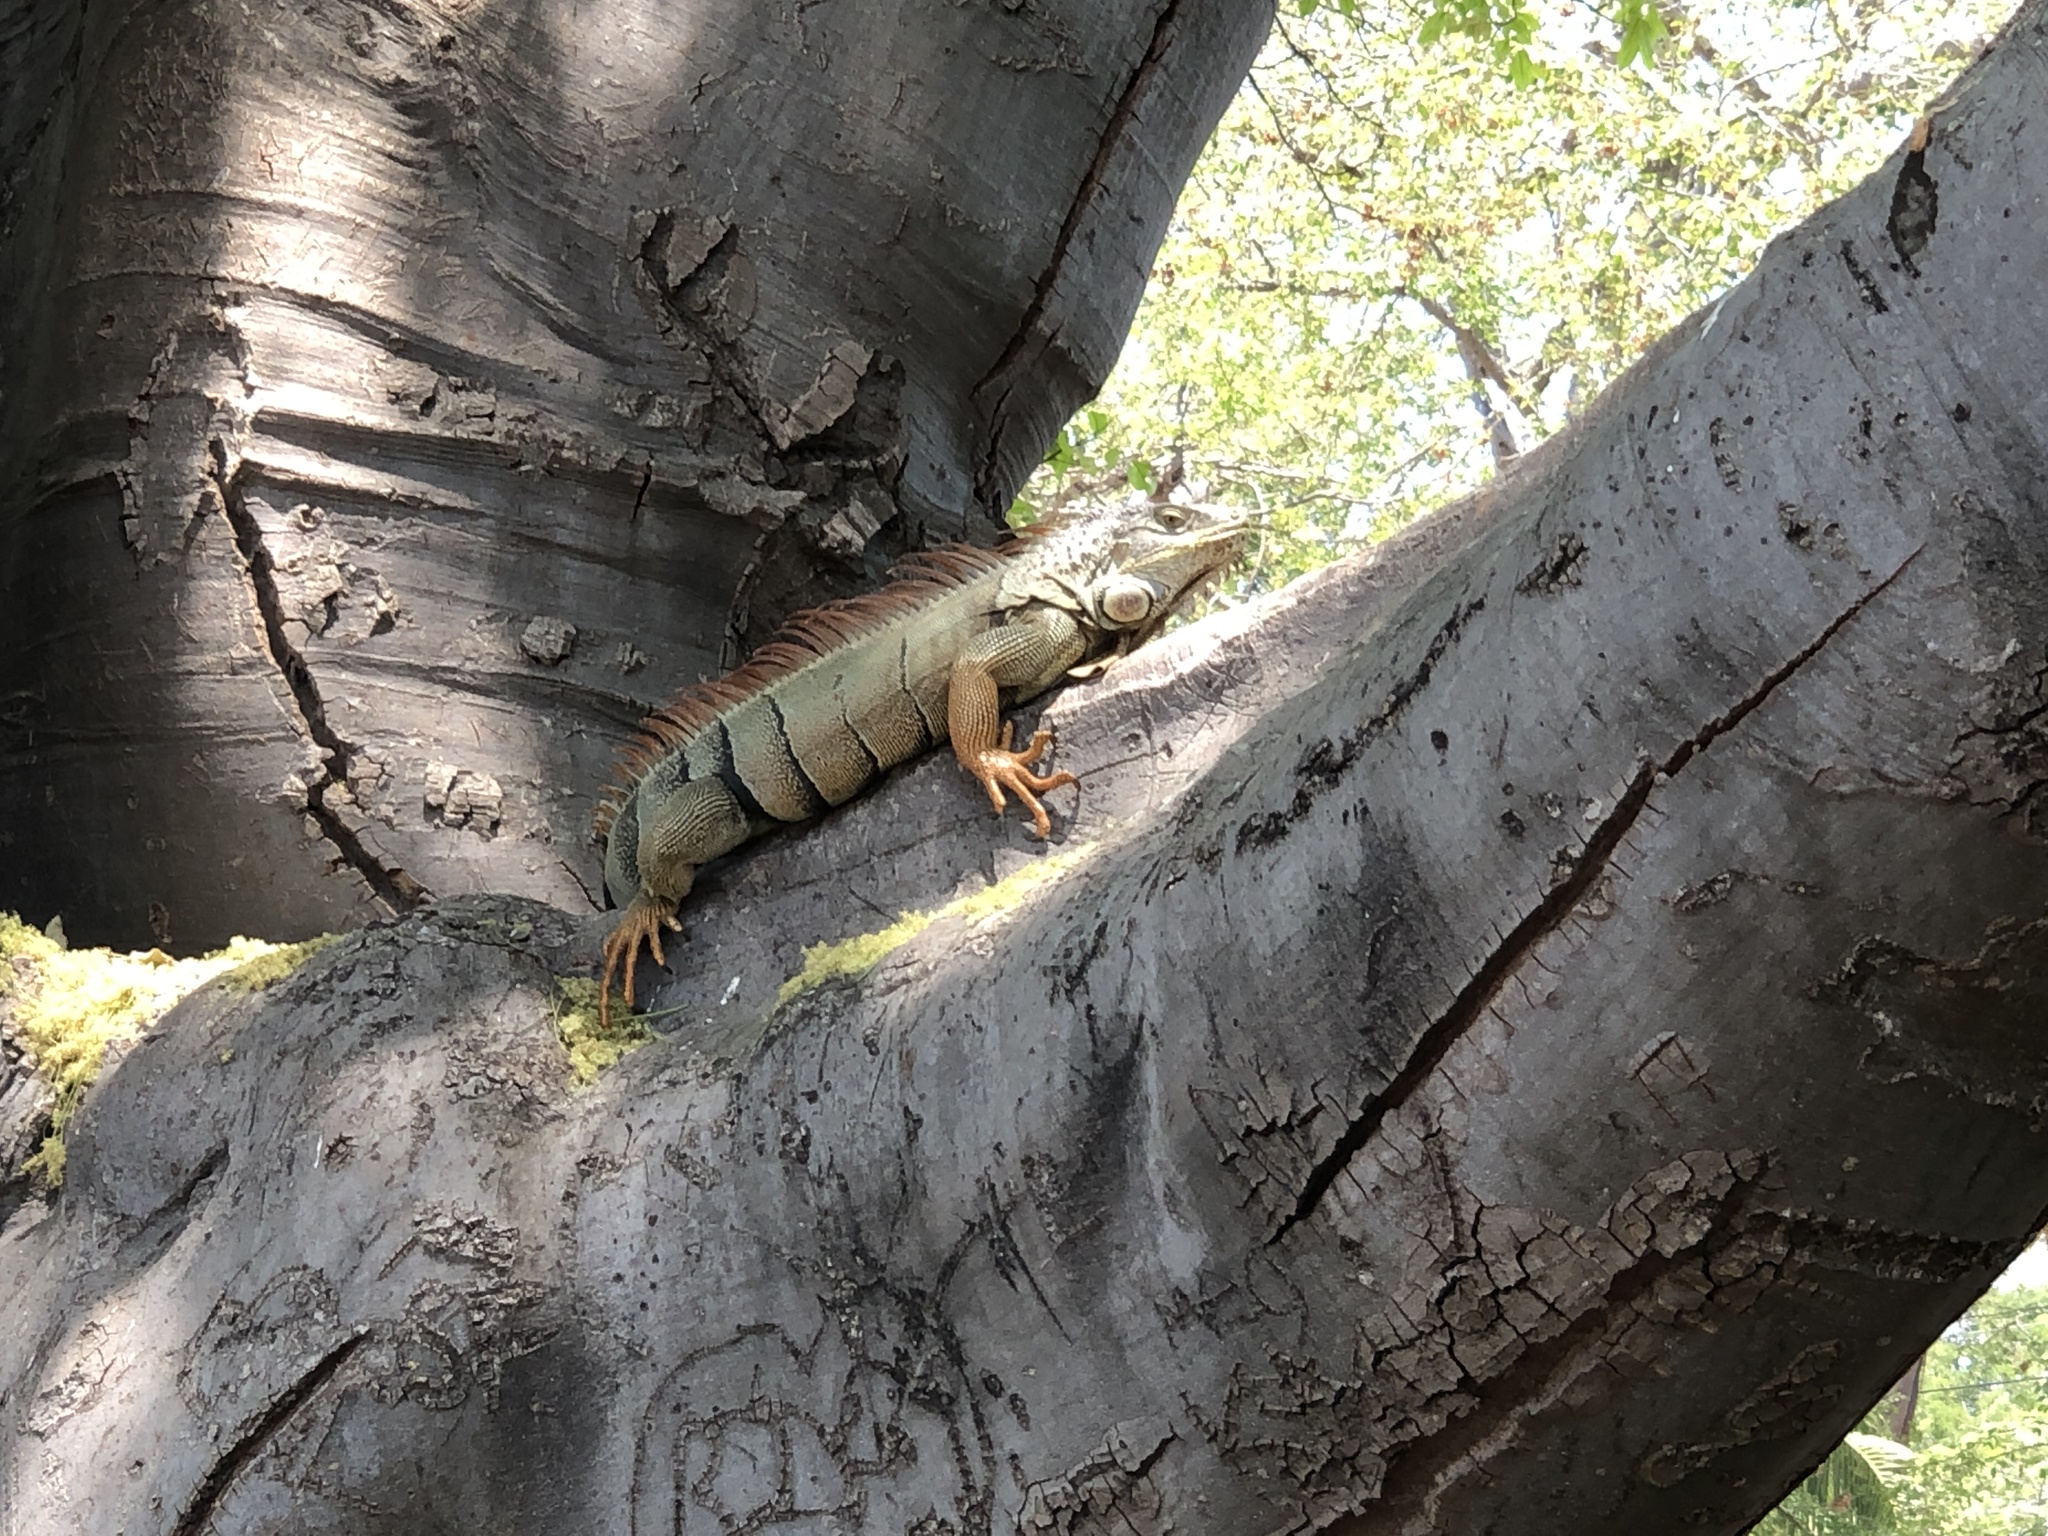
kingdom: Animalia
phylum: Chordata
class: Squamata
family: Iguanidae
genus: Iguana
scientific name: Iguana iguana
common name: Green iguana
